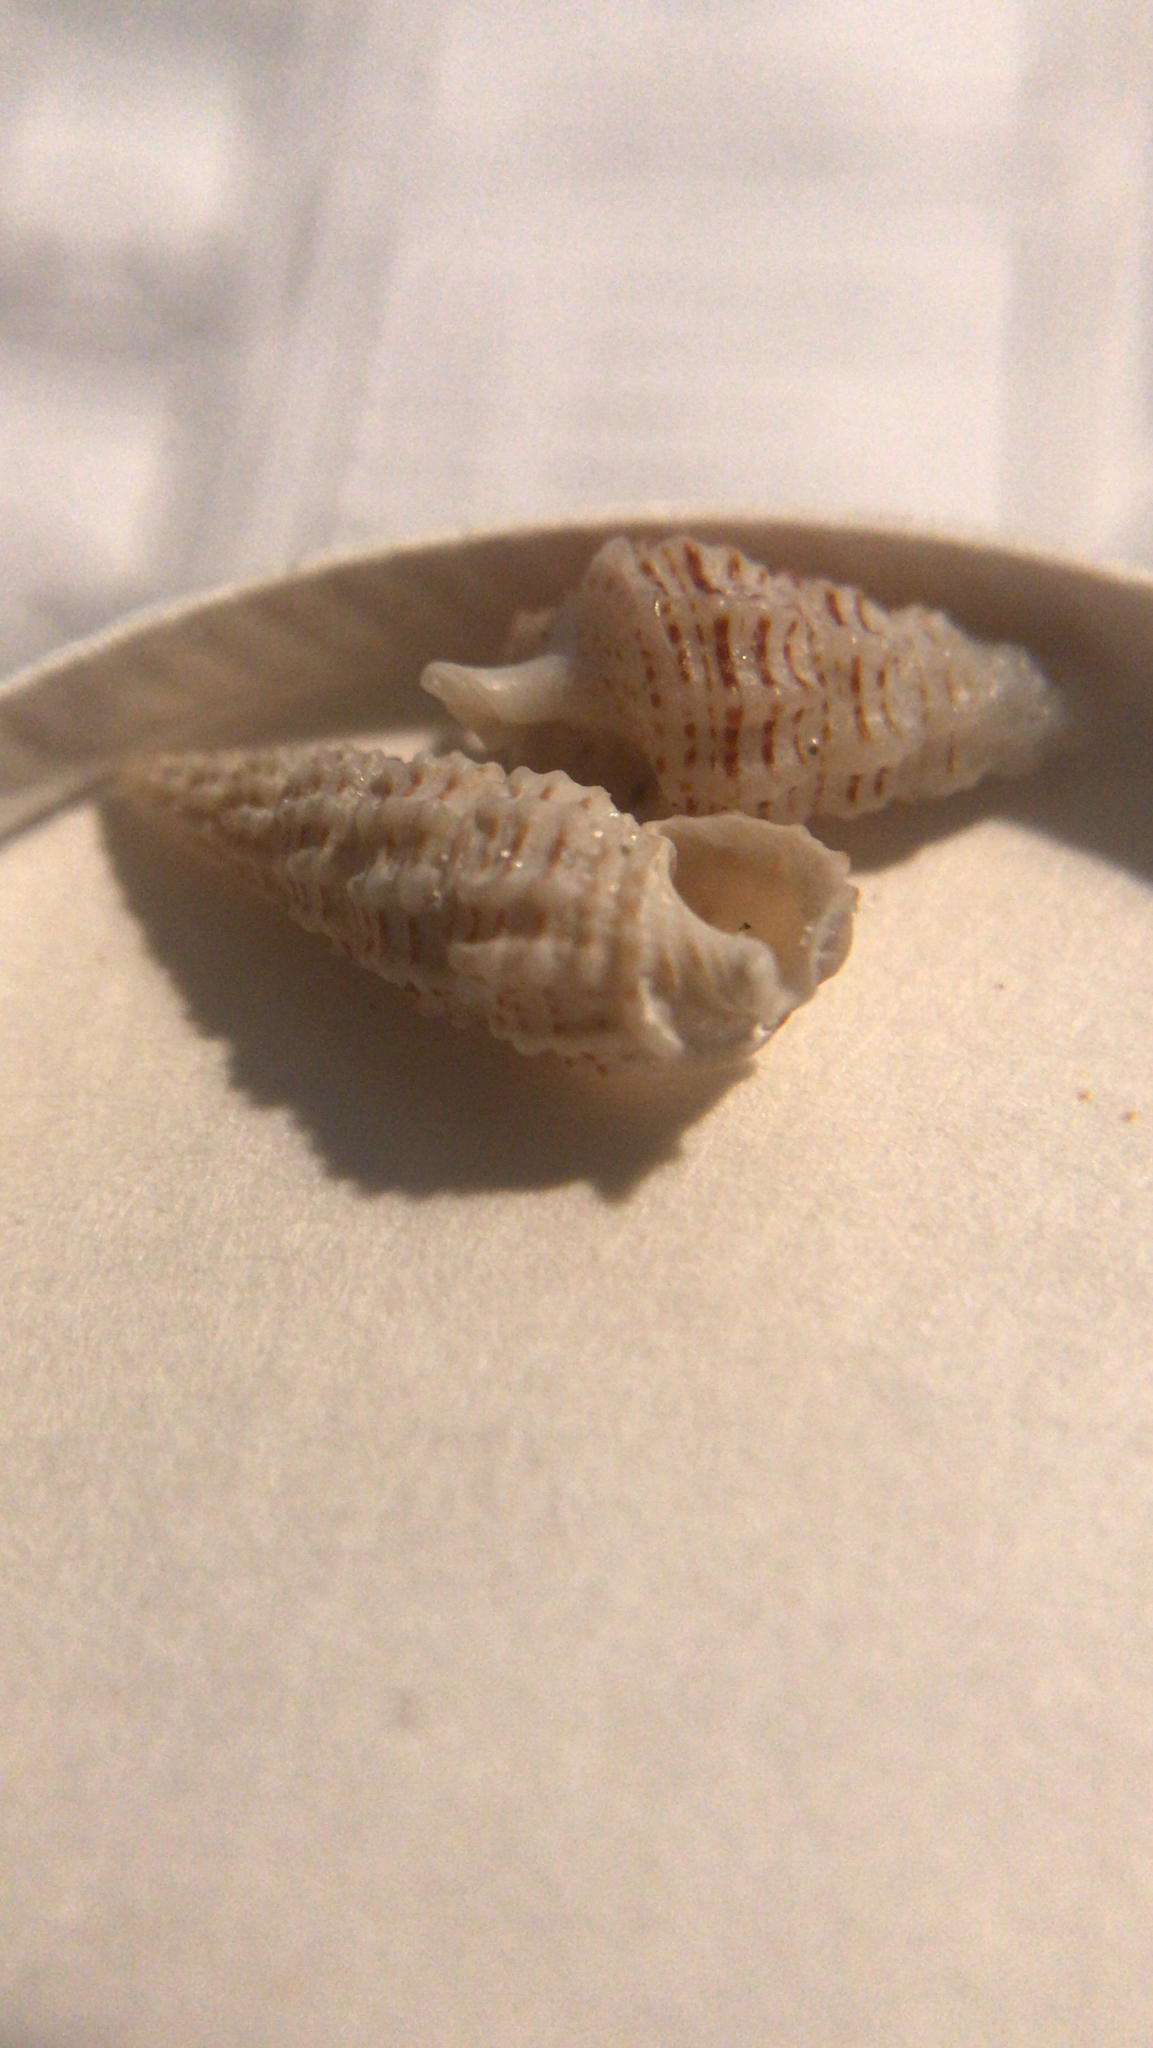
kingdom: Animalia
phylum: Mollusca
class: Gastropoda
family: Cerithiidae
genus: Cerithium
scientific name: Cerithium muscarum
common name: Fly-specked cerith
